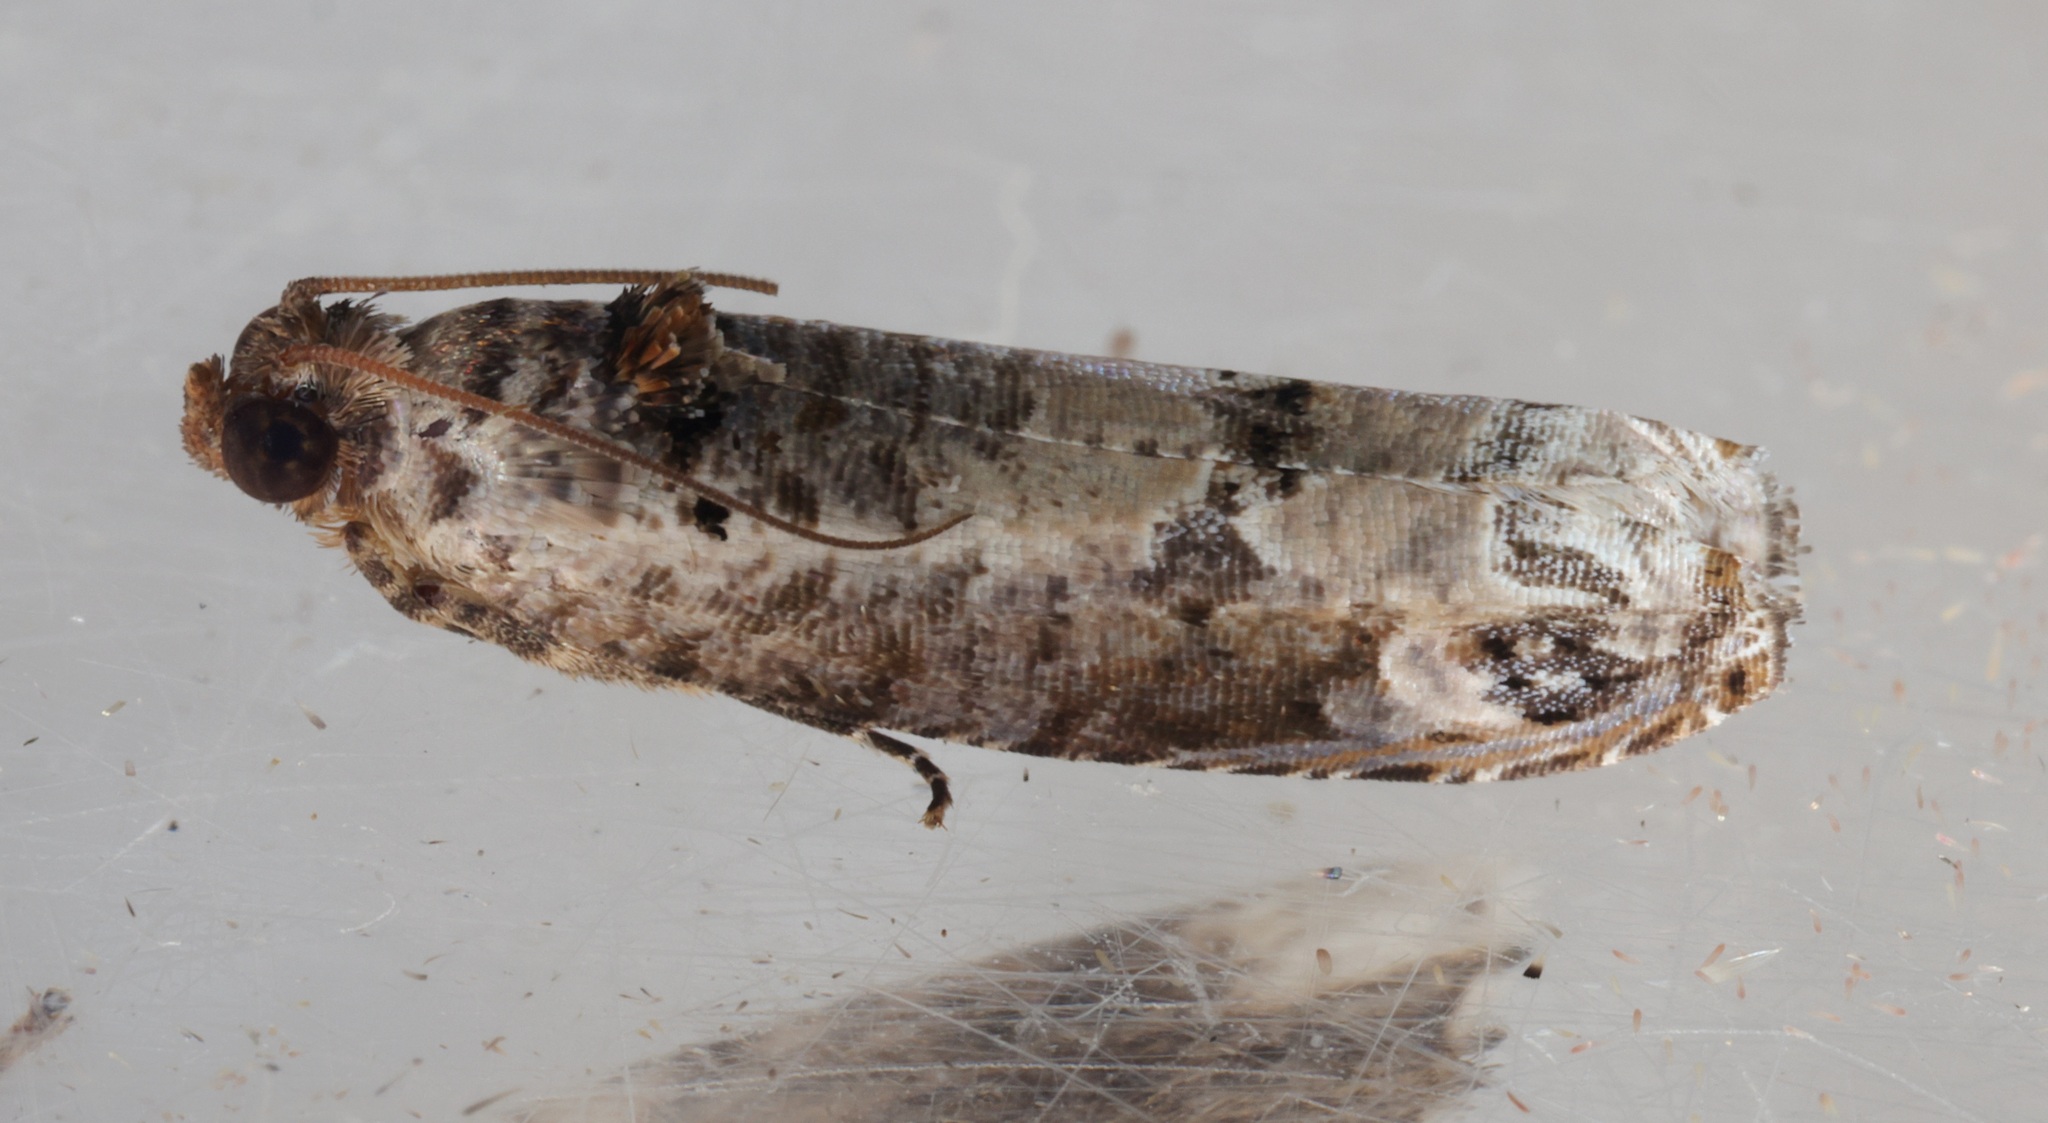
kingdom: Animalia
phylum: Arthropoda
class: Insecta
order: Lepidoptera
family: Tortricidae
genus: Dudua
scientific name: Dudua aprobola
